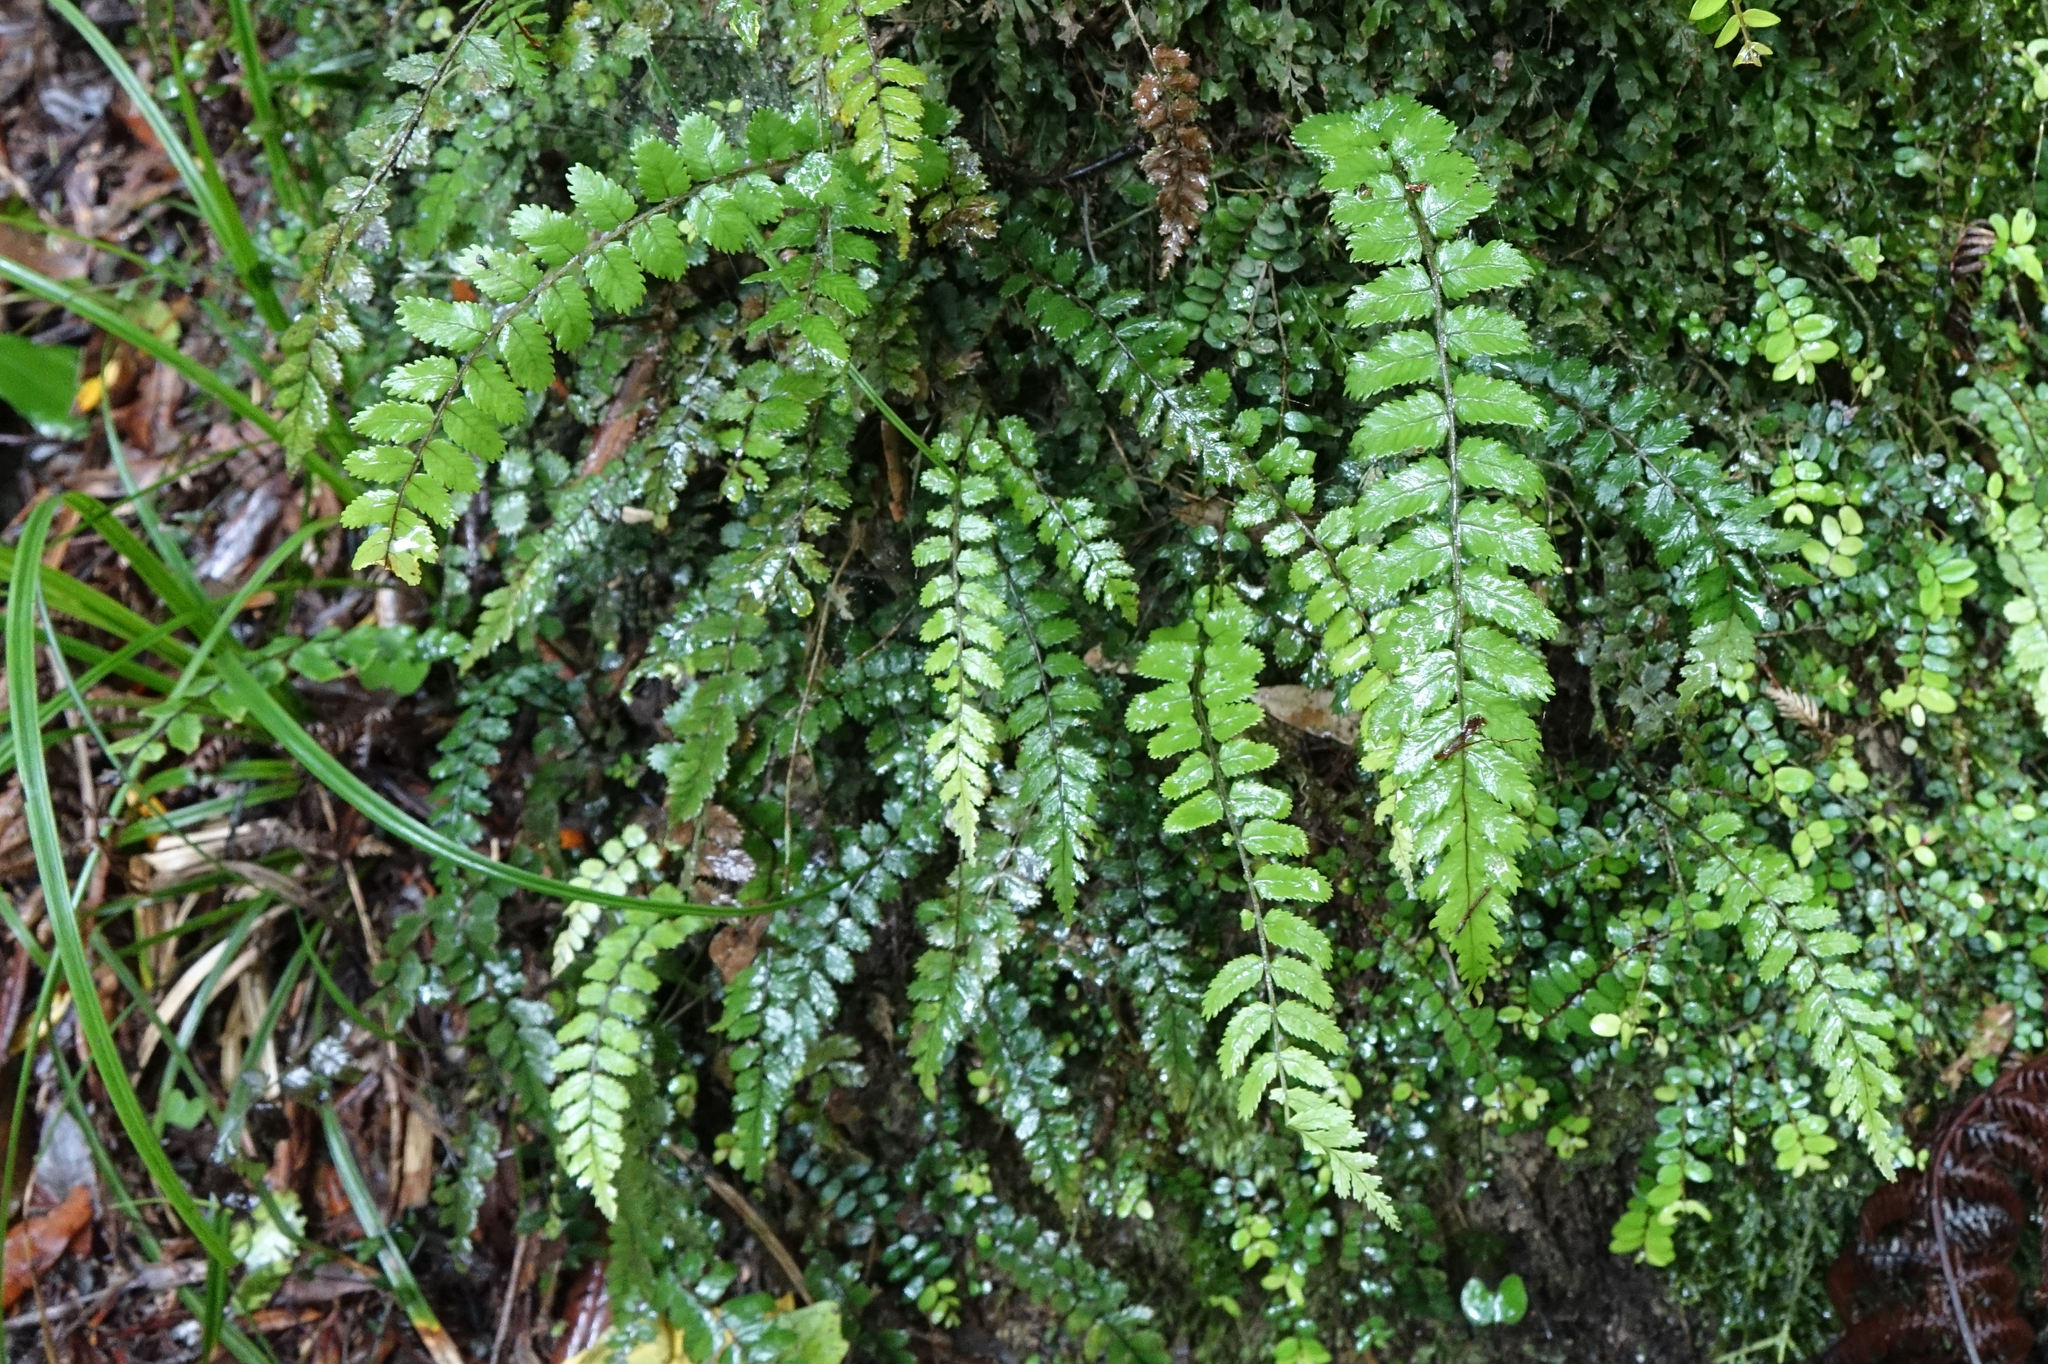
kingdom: Plantae
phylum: Tracheophyta
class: Polypodiopsida
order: Polypodiales
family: Blechnaceae
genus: Icarus
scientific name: Icarus filiformis
